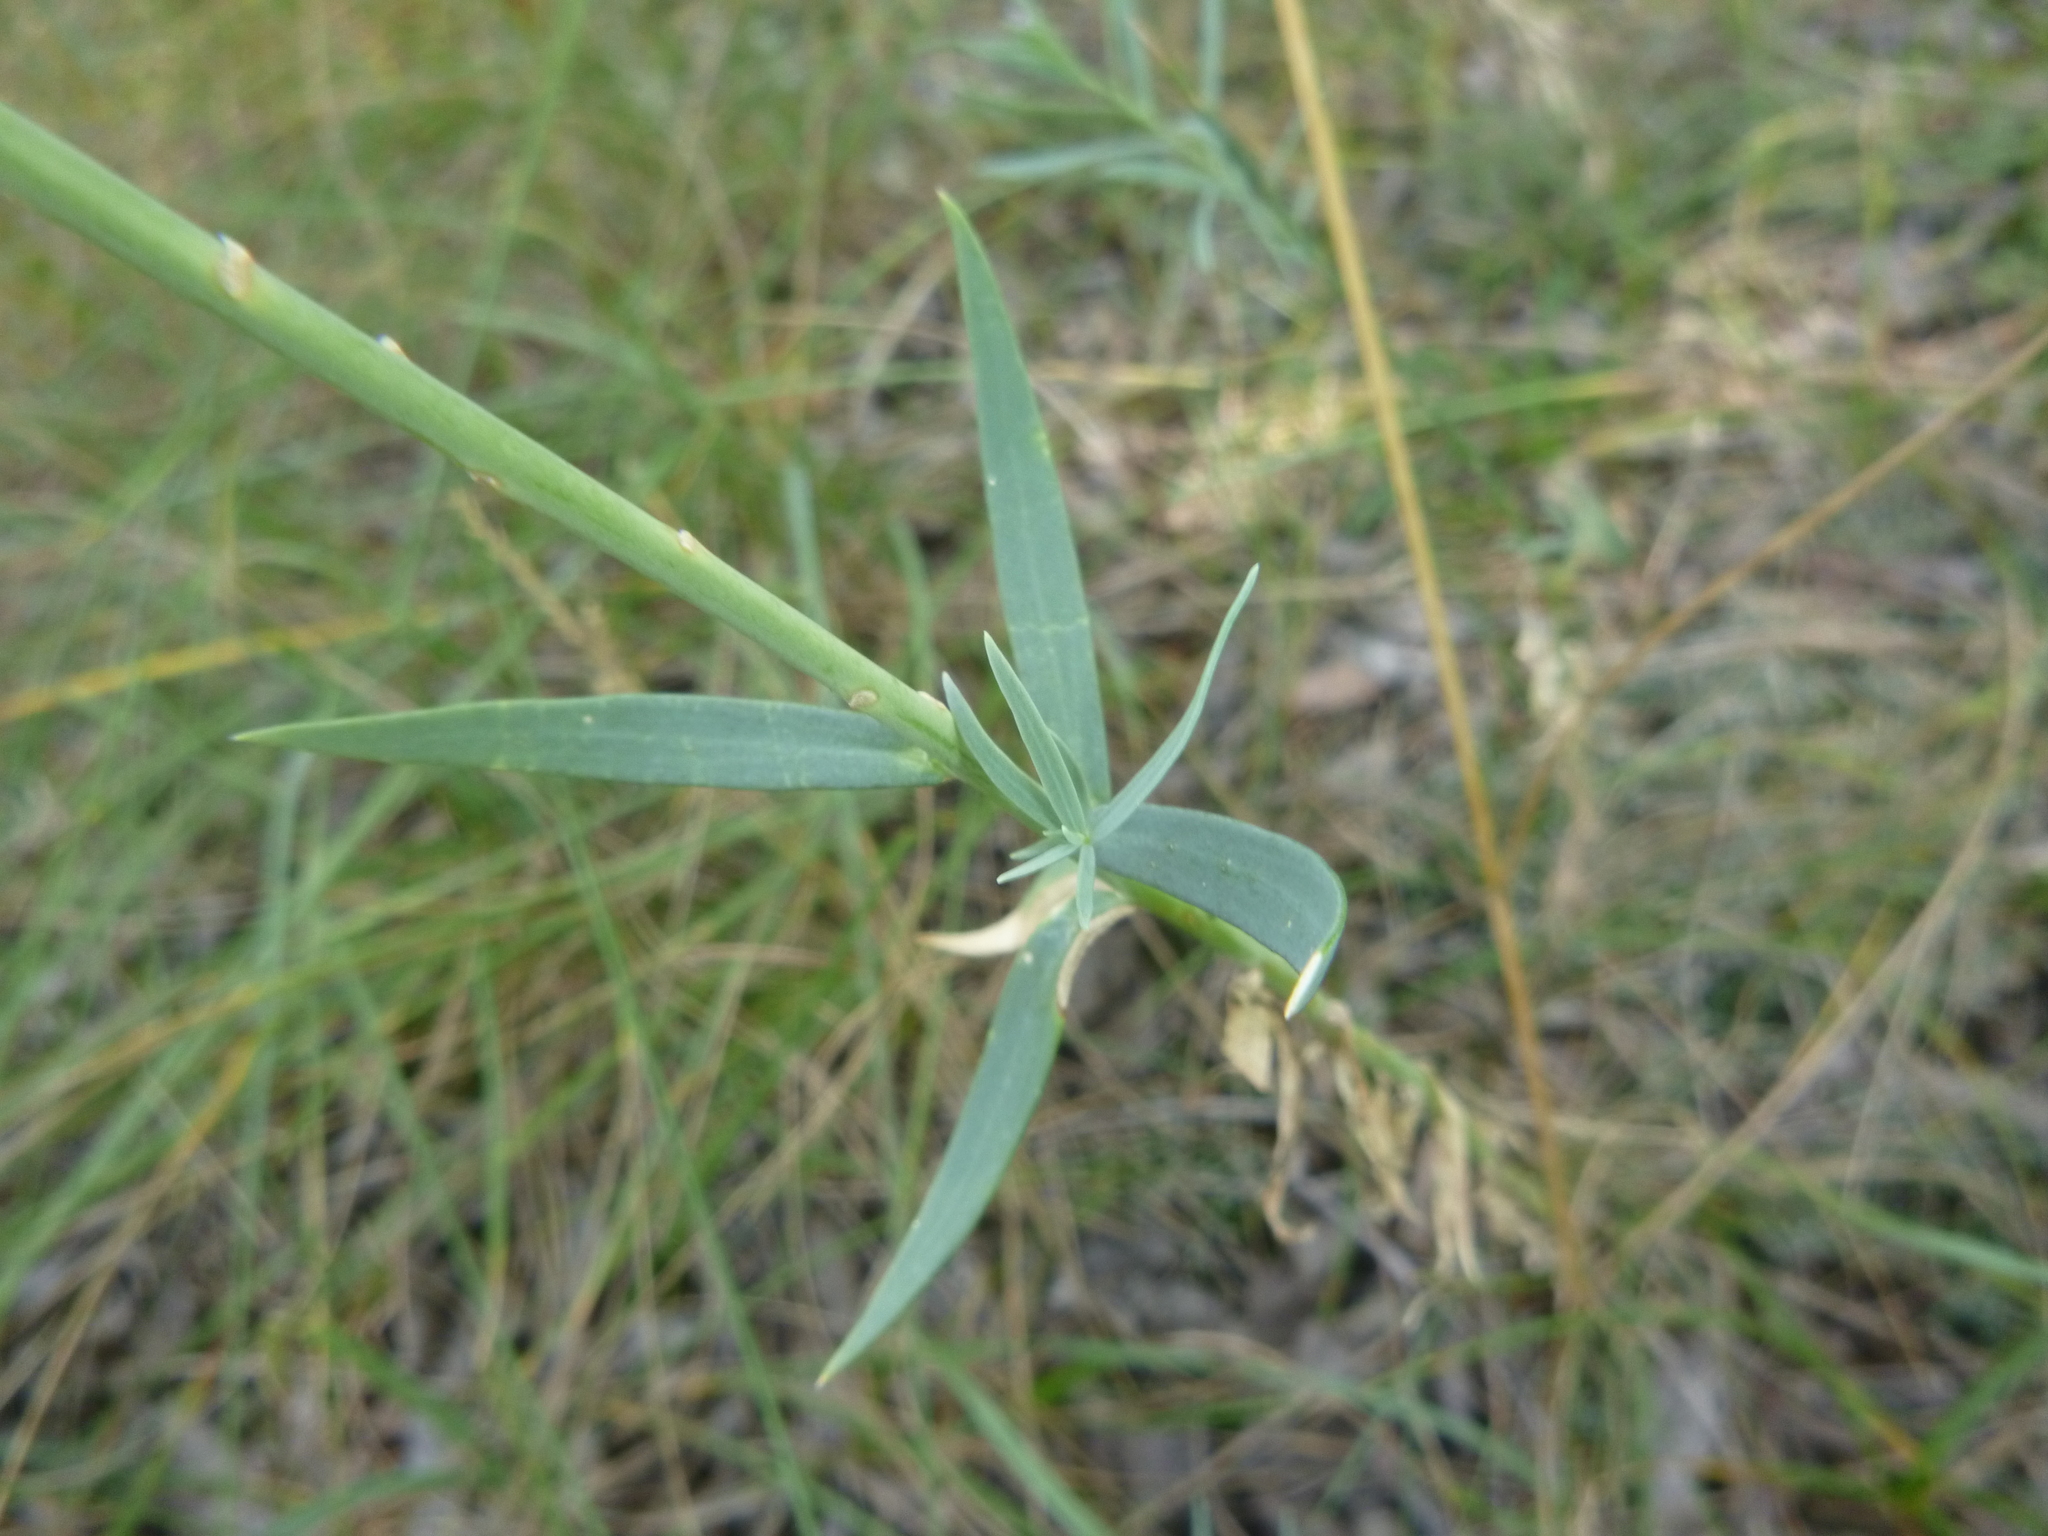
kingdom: Plantae
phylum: Tracheophyta
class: Magnoliopsida
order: Lamiales
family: Plantaginaceae
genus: Linaria
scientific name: Linaria genistifolia
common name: Broomleaf toadflax
